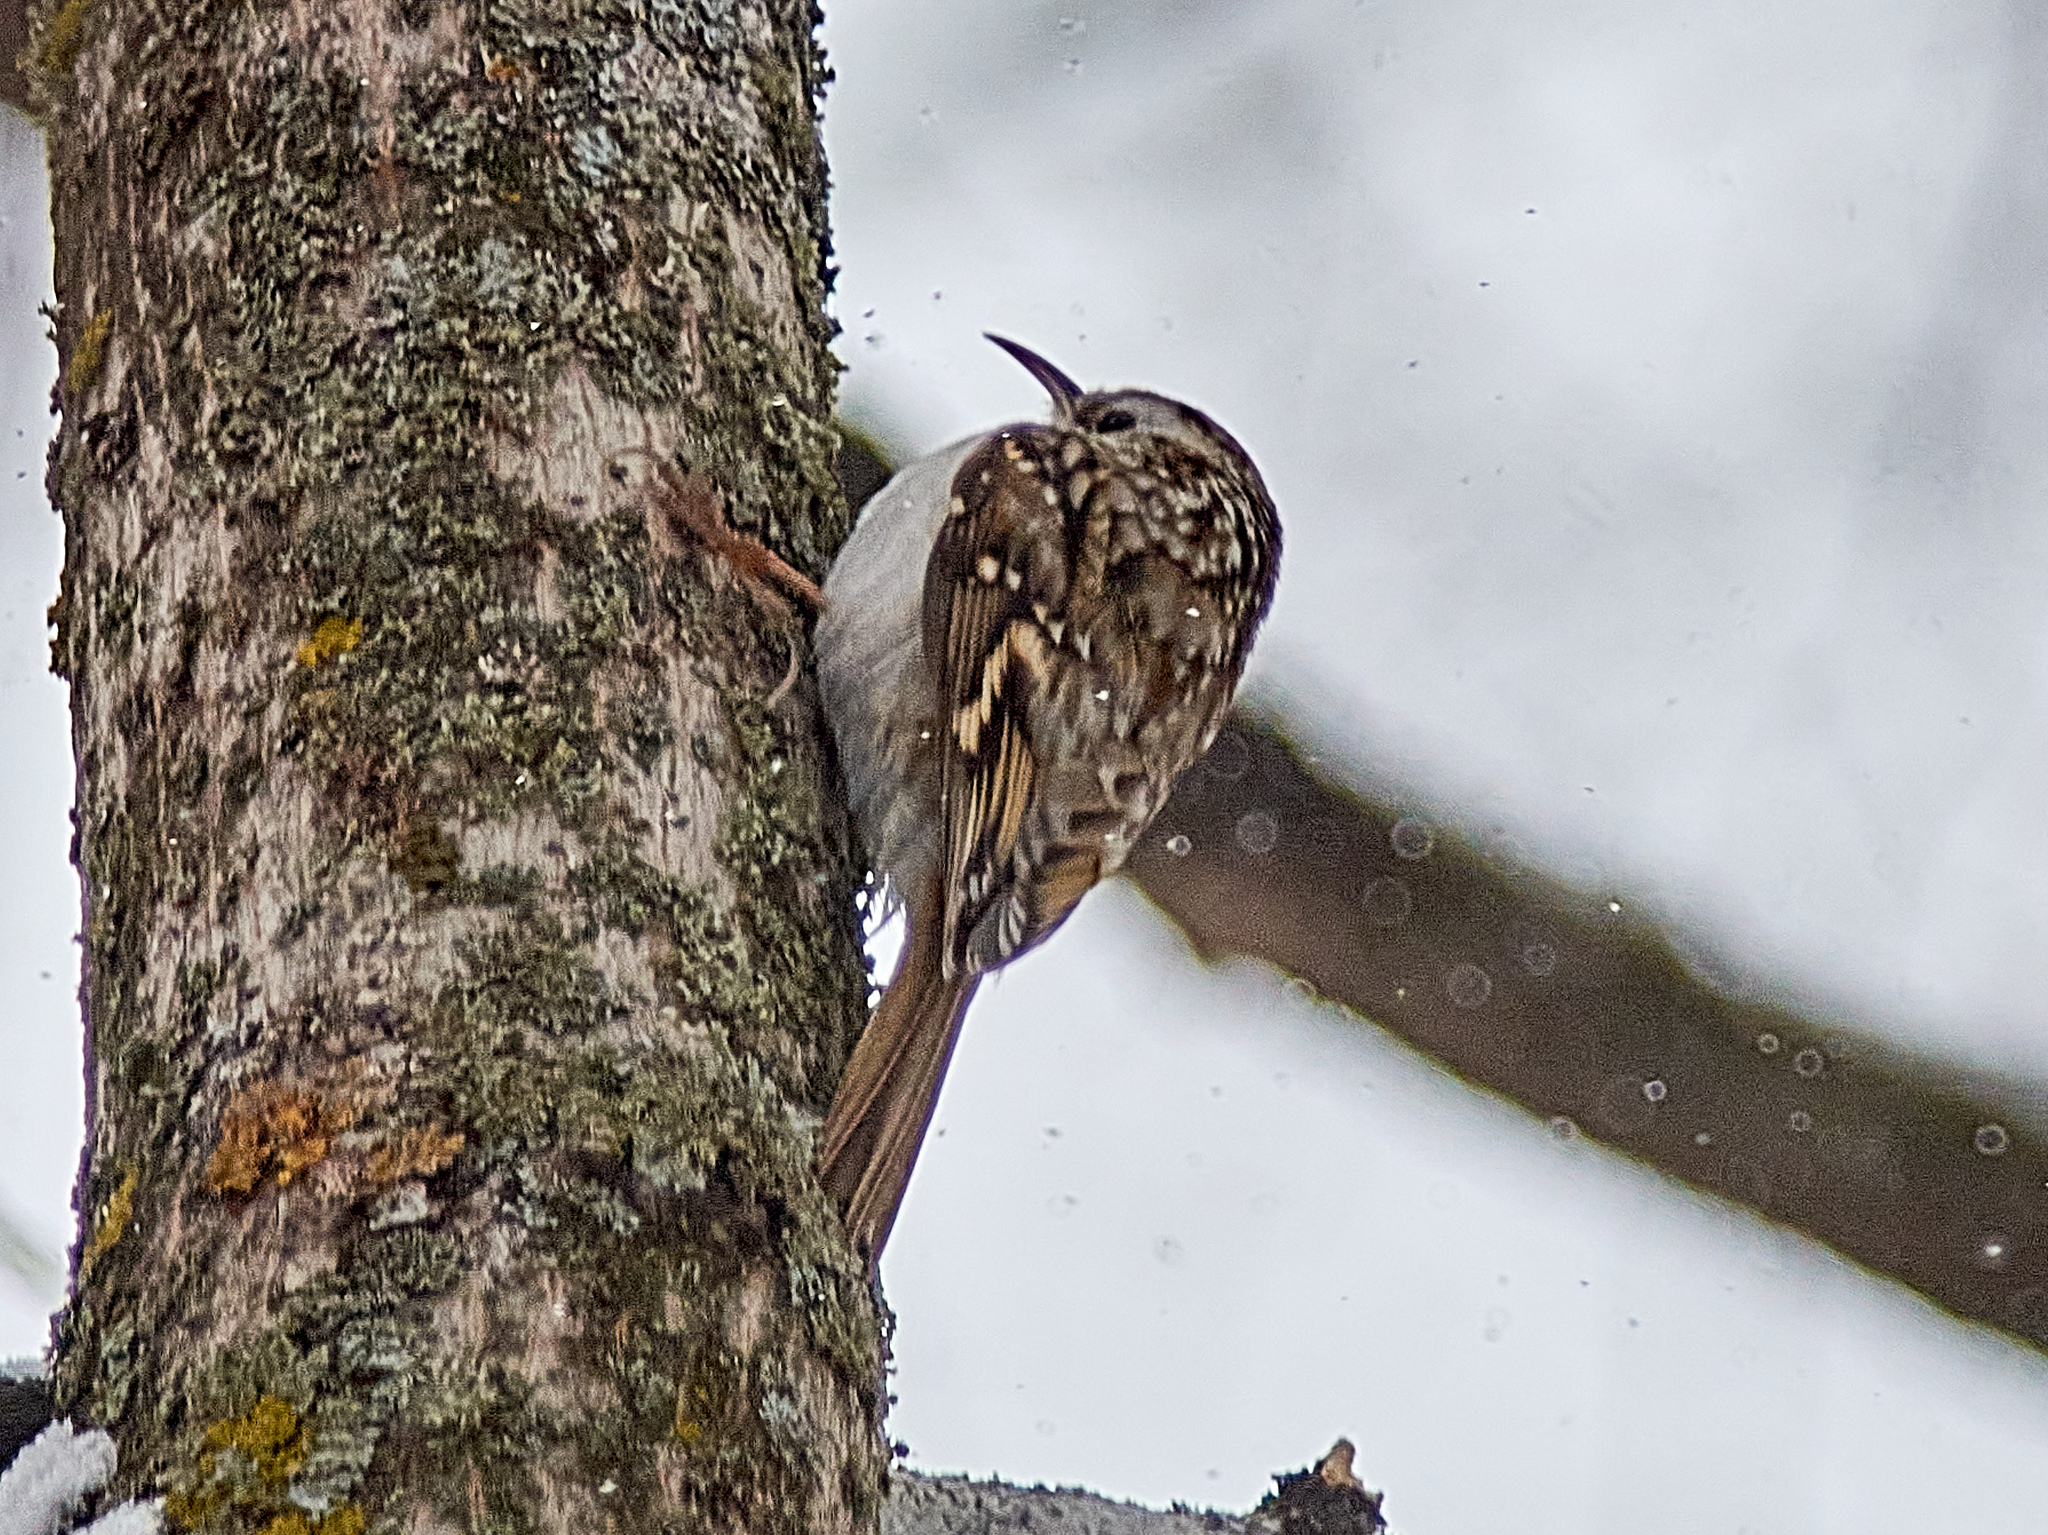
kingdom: Animalia
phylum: Chordata
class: Aves
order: Passeriformes
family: Certhiidae
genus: Certhia
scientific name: Certhia familiaris
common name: Eurasian treecreeper
